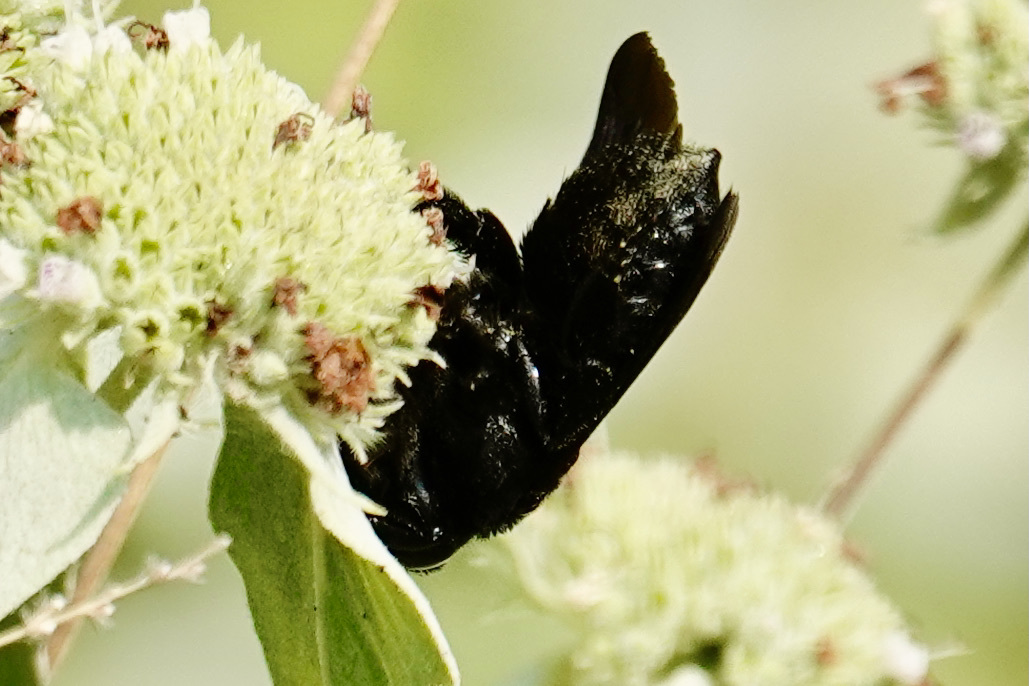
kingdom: Animalia
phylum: Arthropoda
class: Insecta
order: Hymenoptera
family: Megachilidae
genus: Megachile
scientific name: Megachile xylocopoides
